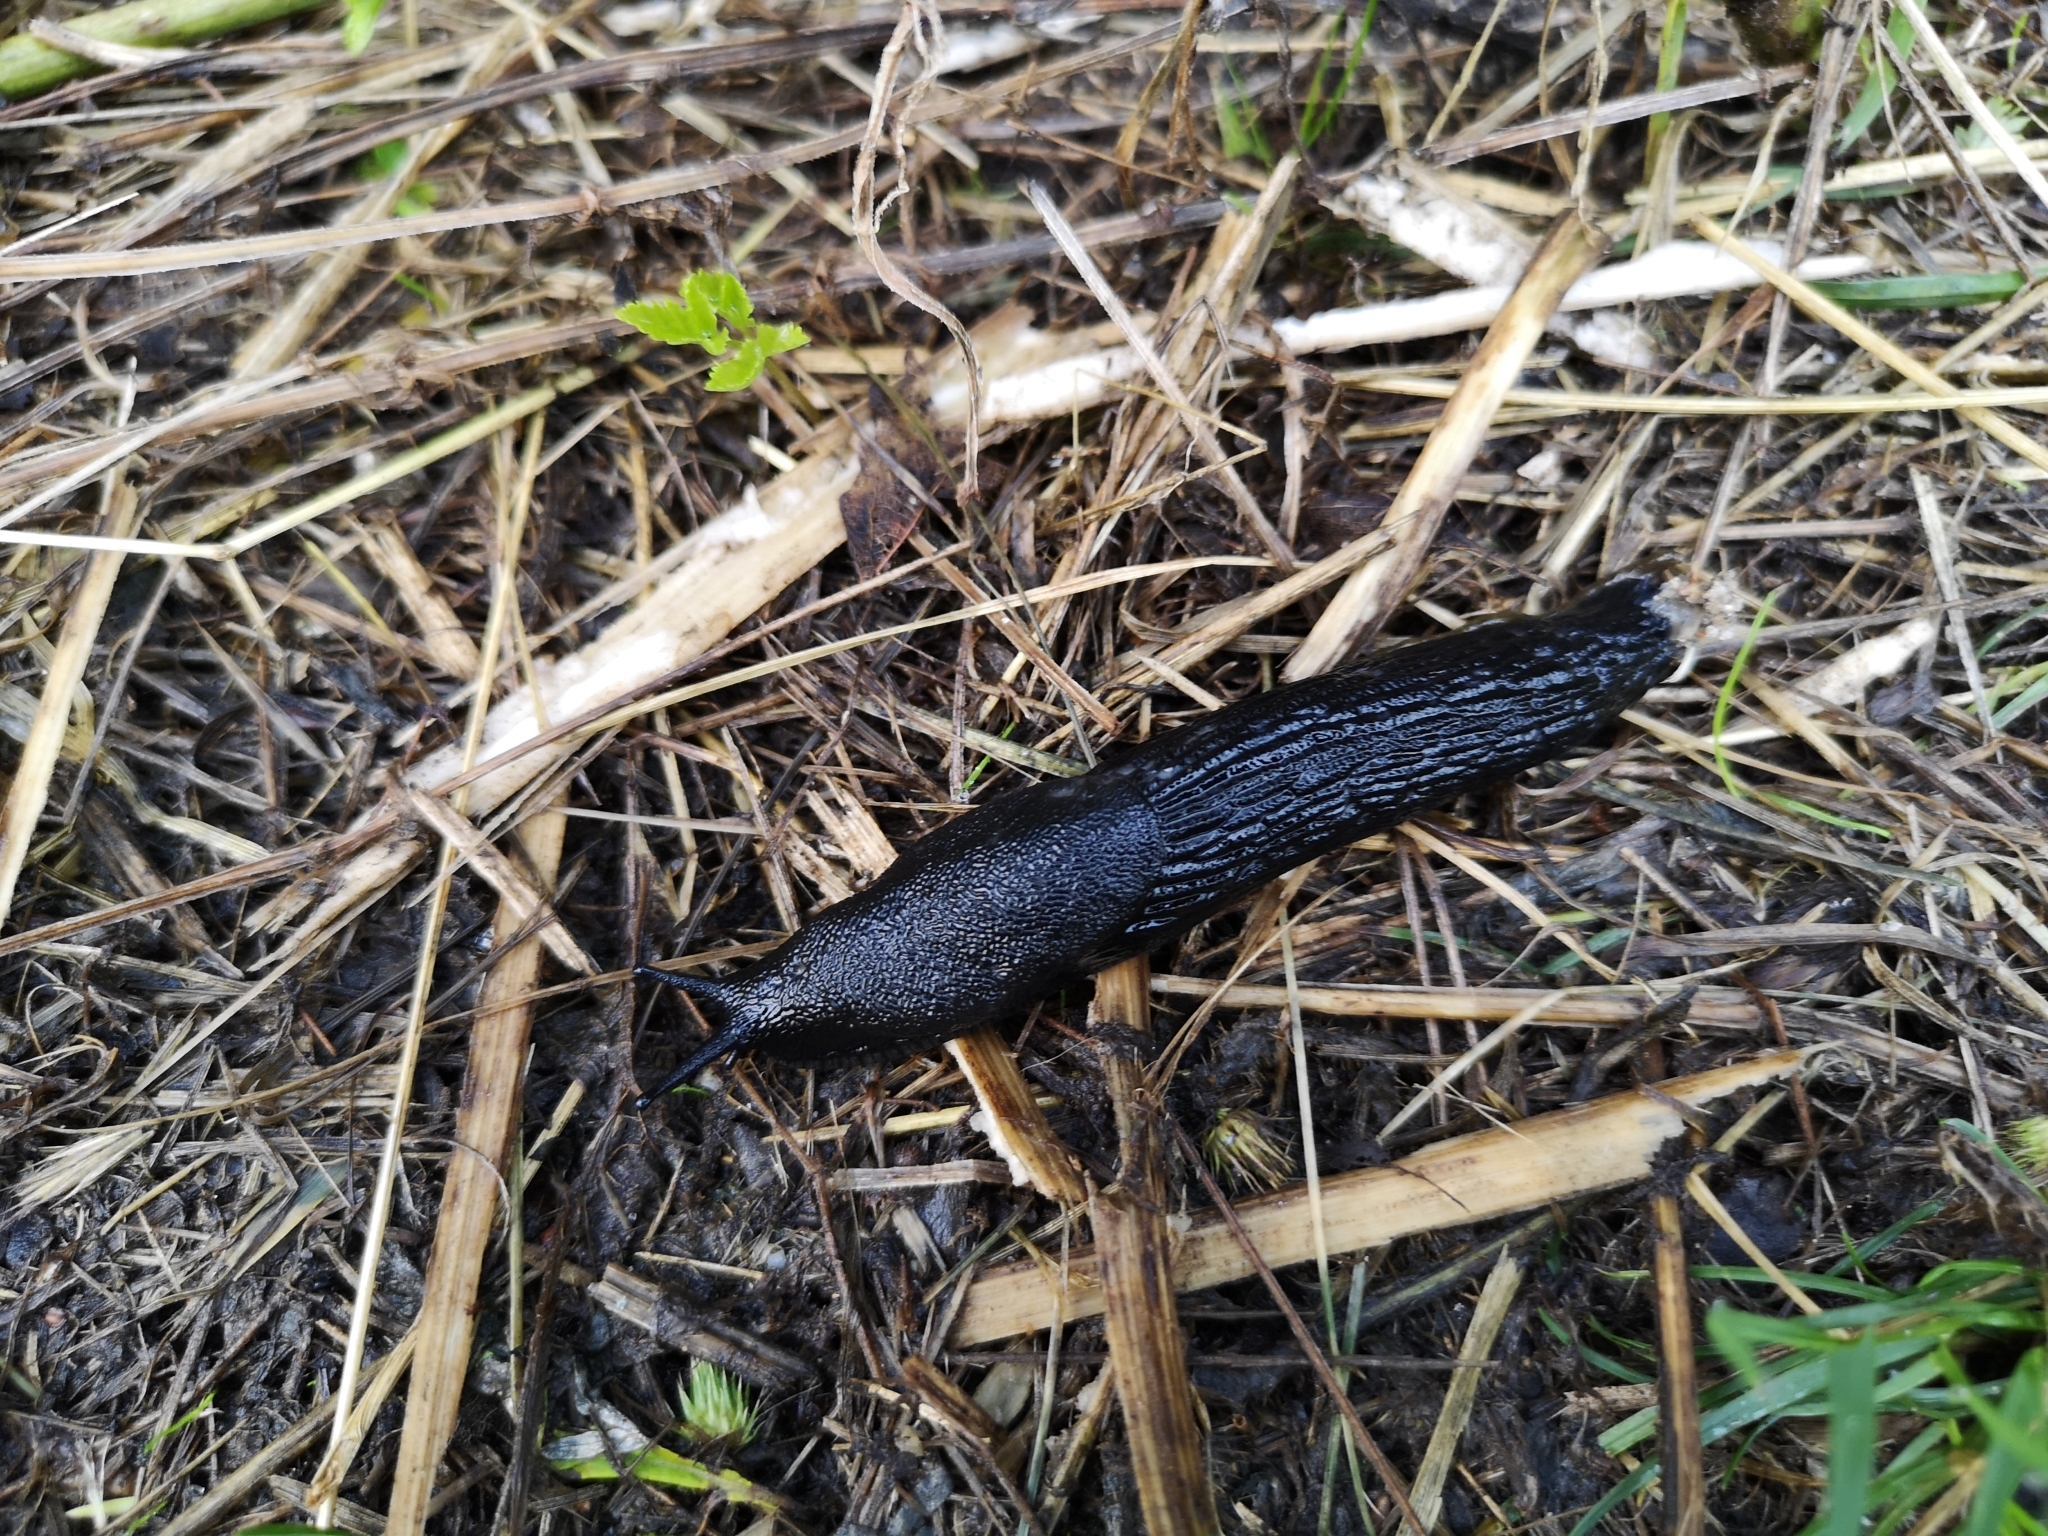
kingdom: Animalia
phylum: Mollusca
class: Gastropoda
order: Stylommatophora
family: Arionidae
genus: Arion
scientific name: Arion ater
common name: Black arion
